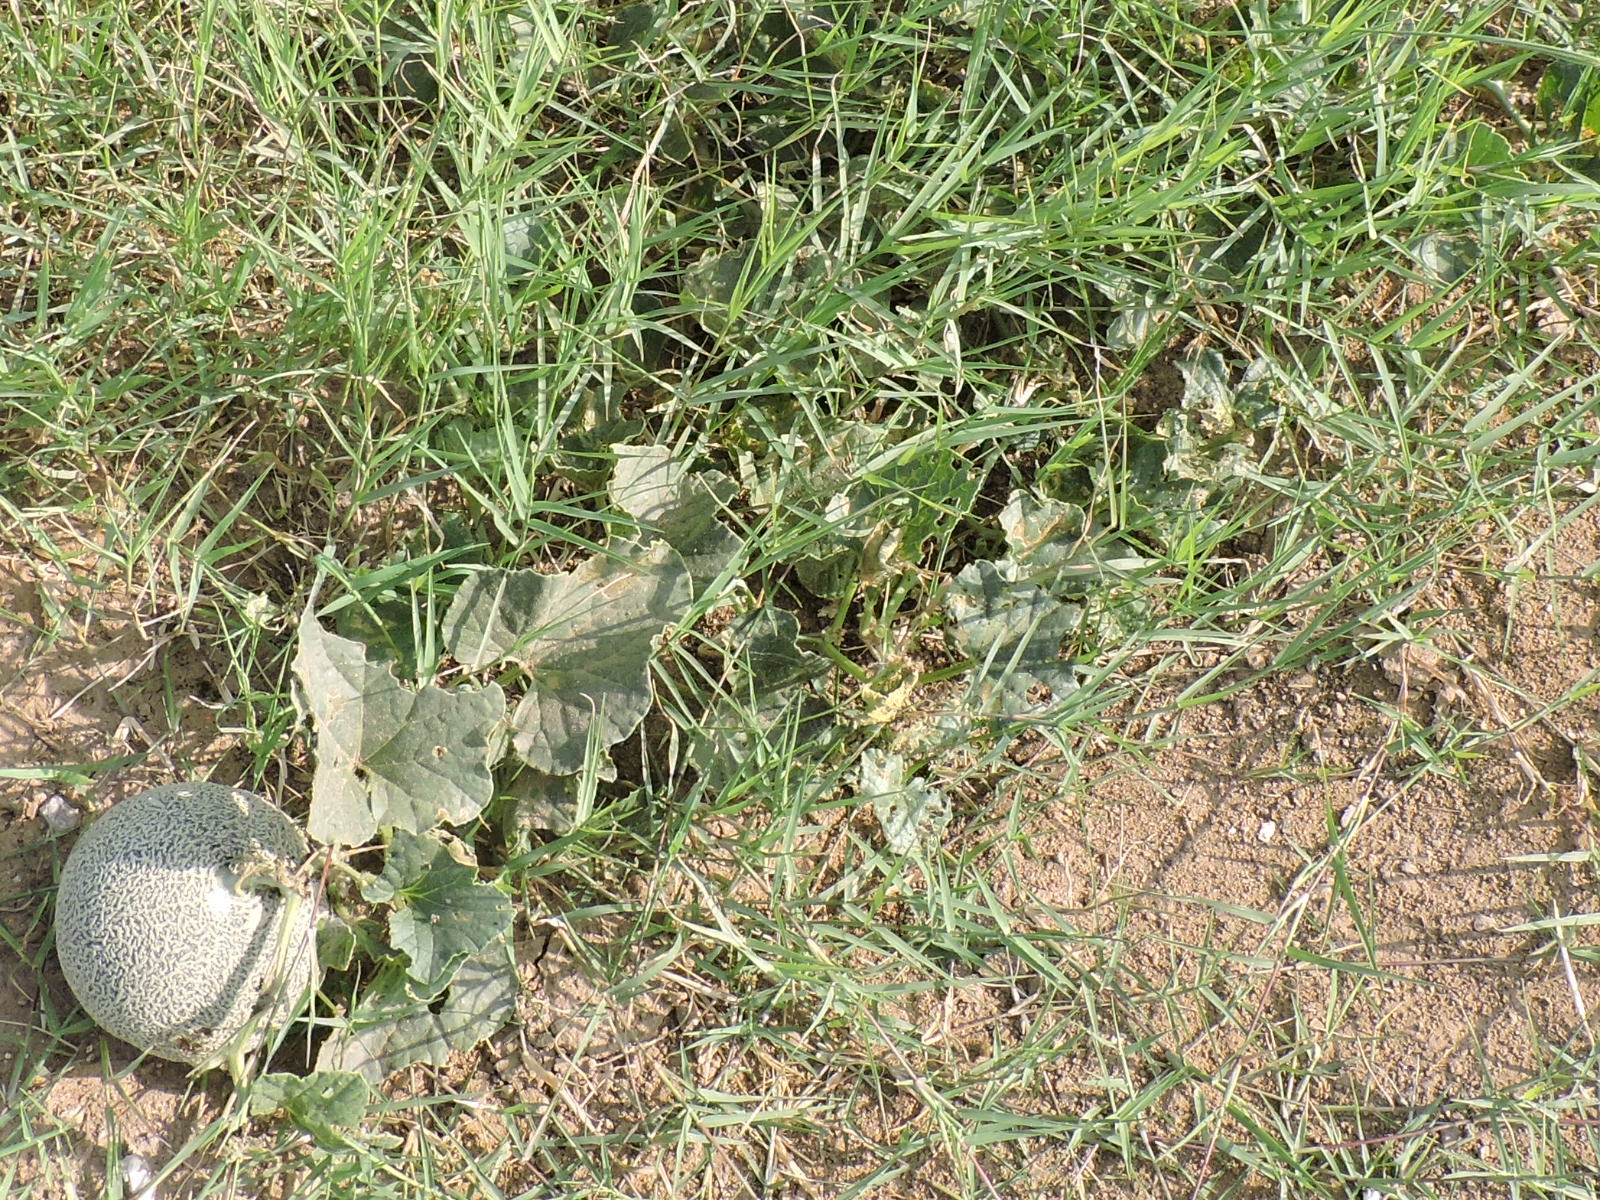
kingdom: Plantae
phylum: Tracheophyta
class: Magnoliopsida
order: Cucurbitales
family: Cucurbitaceae
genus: Cucumis
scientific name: Cucumis melo
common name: Melon
